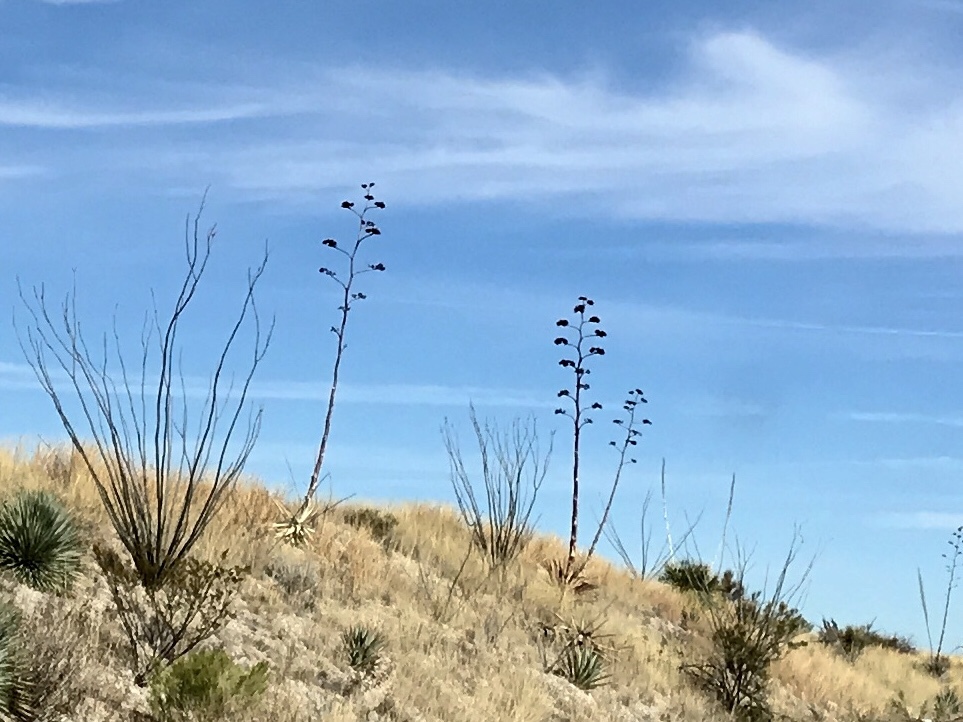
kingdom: Plantae
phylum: Tracheophyta
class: Liliopsida
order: Asparagales
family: Asparagaceae
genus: Agave
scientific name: Agave palmeri
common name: Palmer agave
